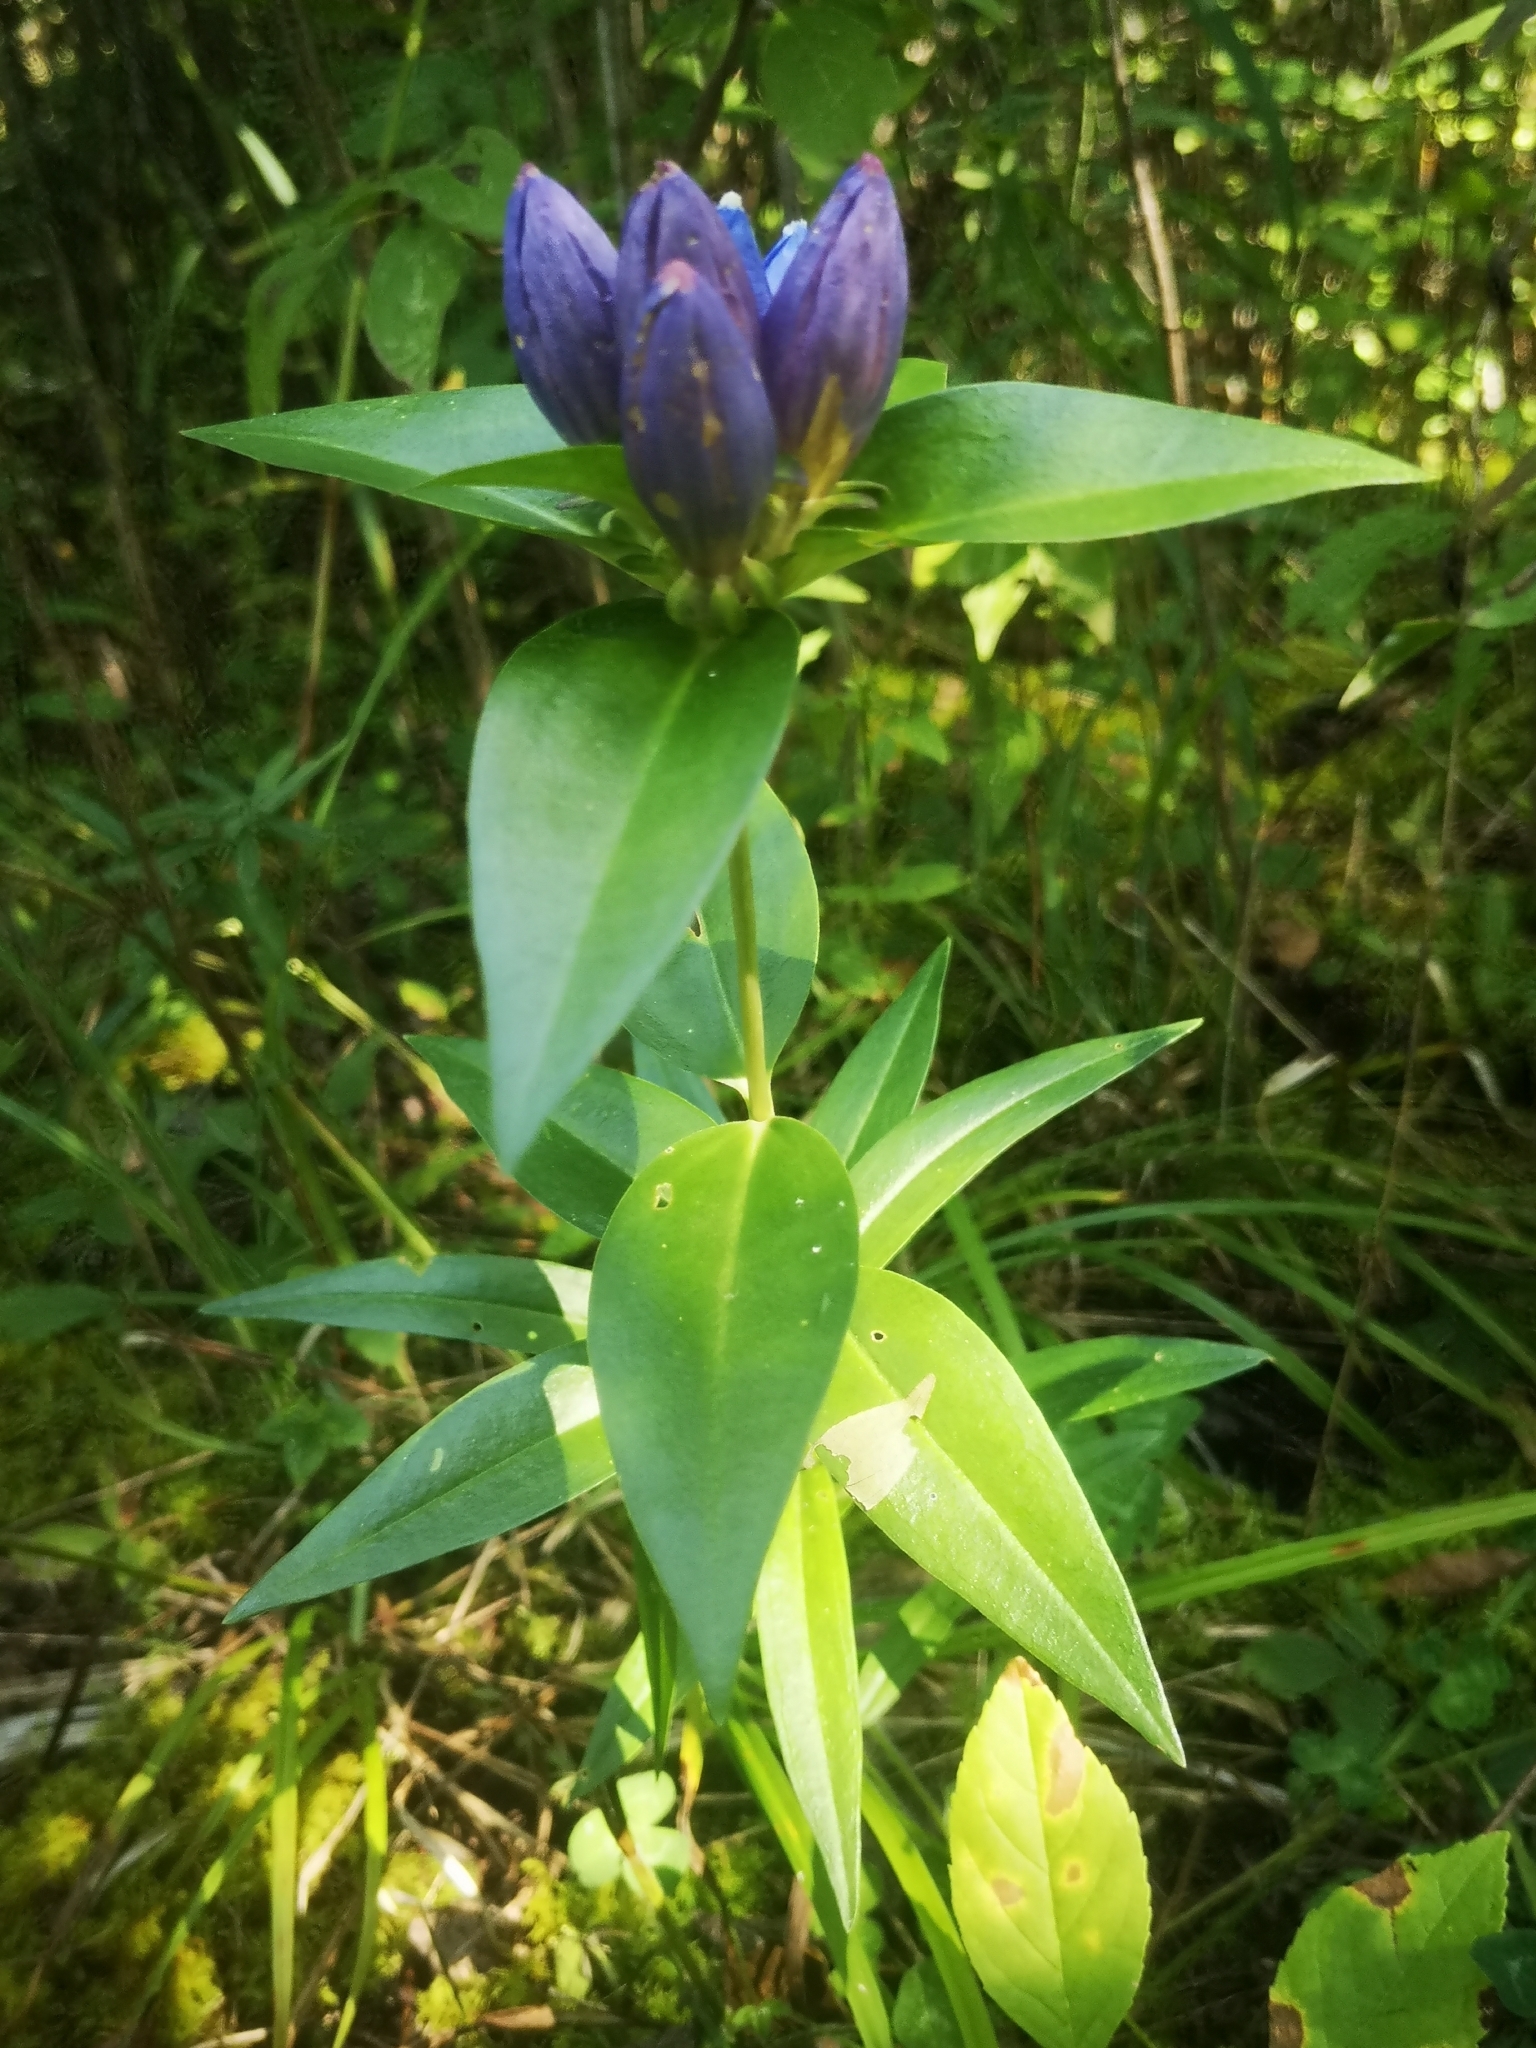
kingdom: Plantae
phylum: Tracheophyta
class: Magnoliopsida
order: Gentianales
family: Gentianaceae
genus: Gentiana
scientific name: Gentiana andrewsii
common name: Bottle gentian
